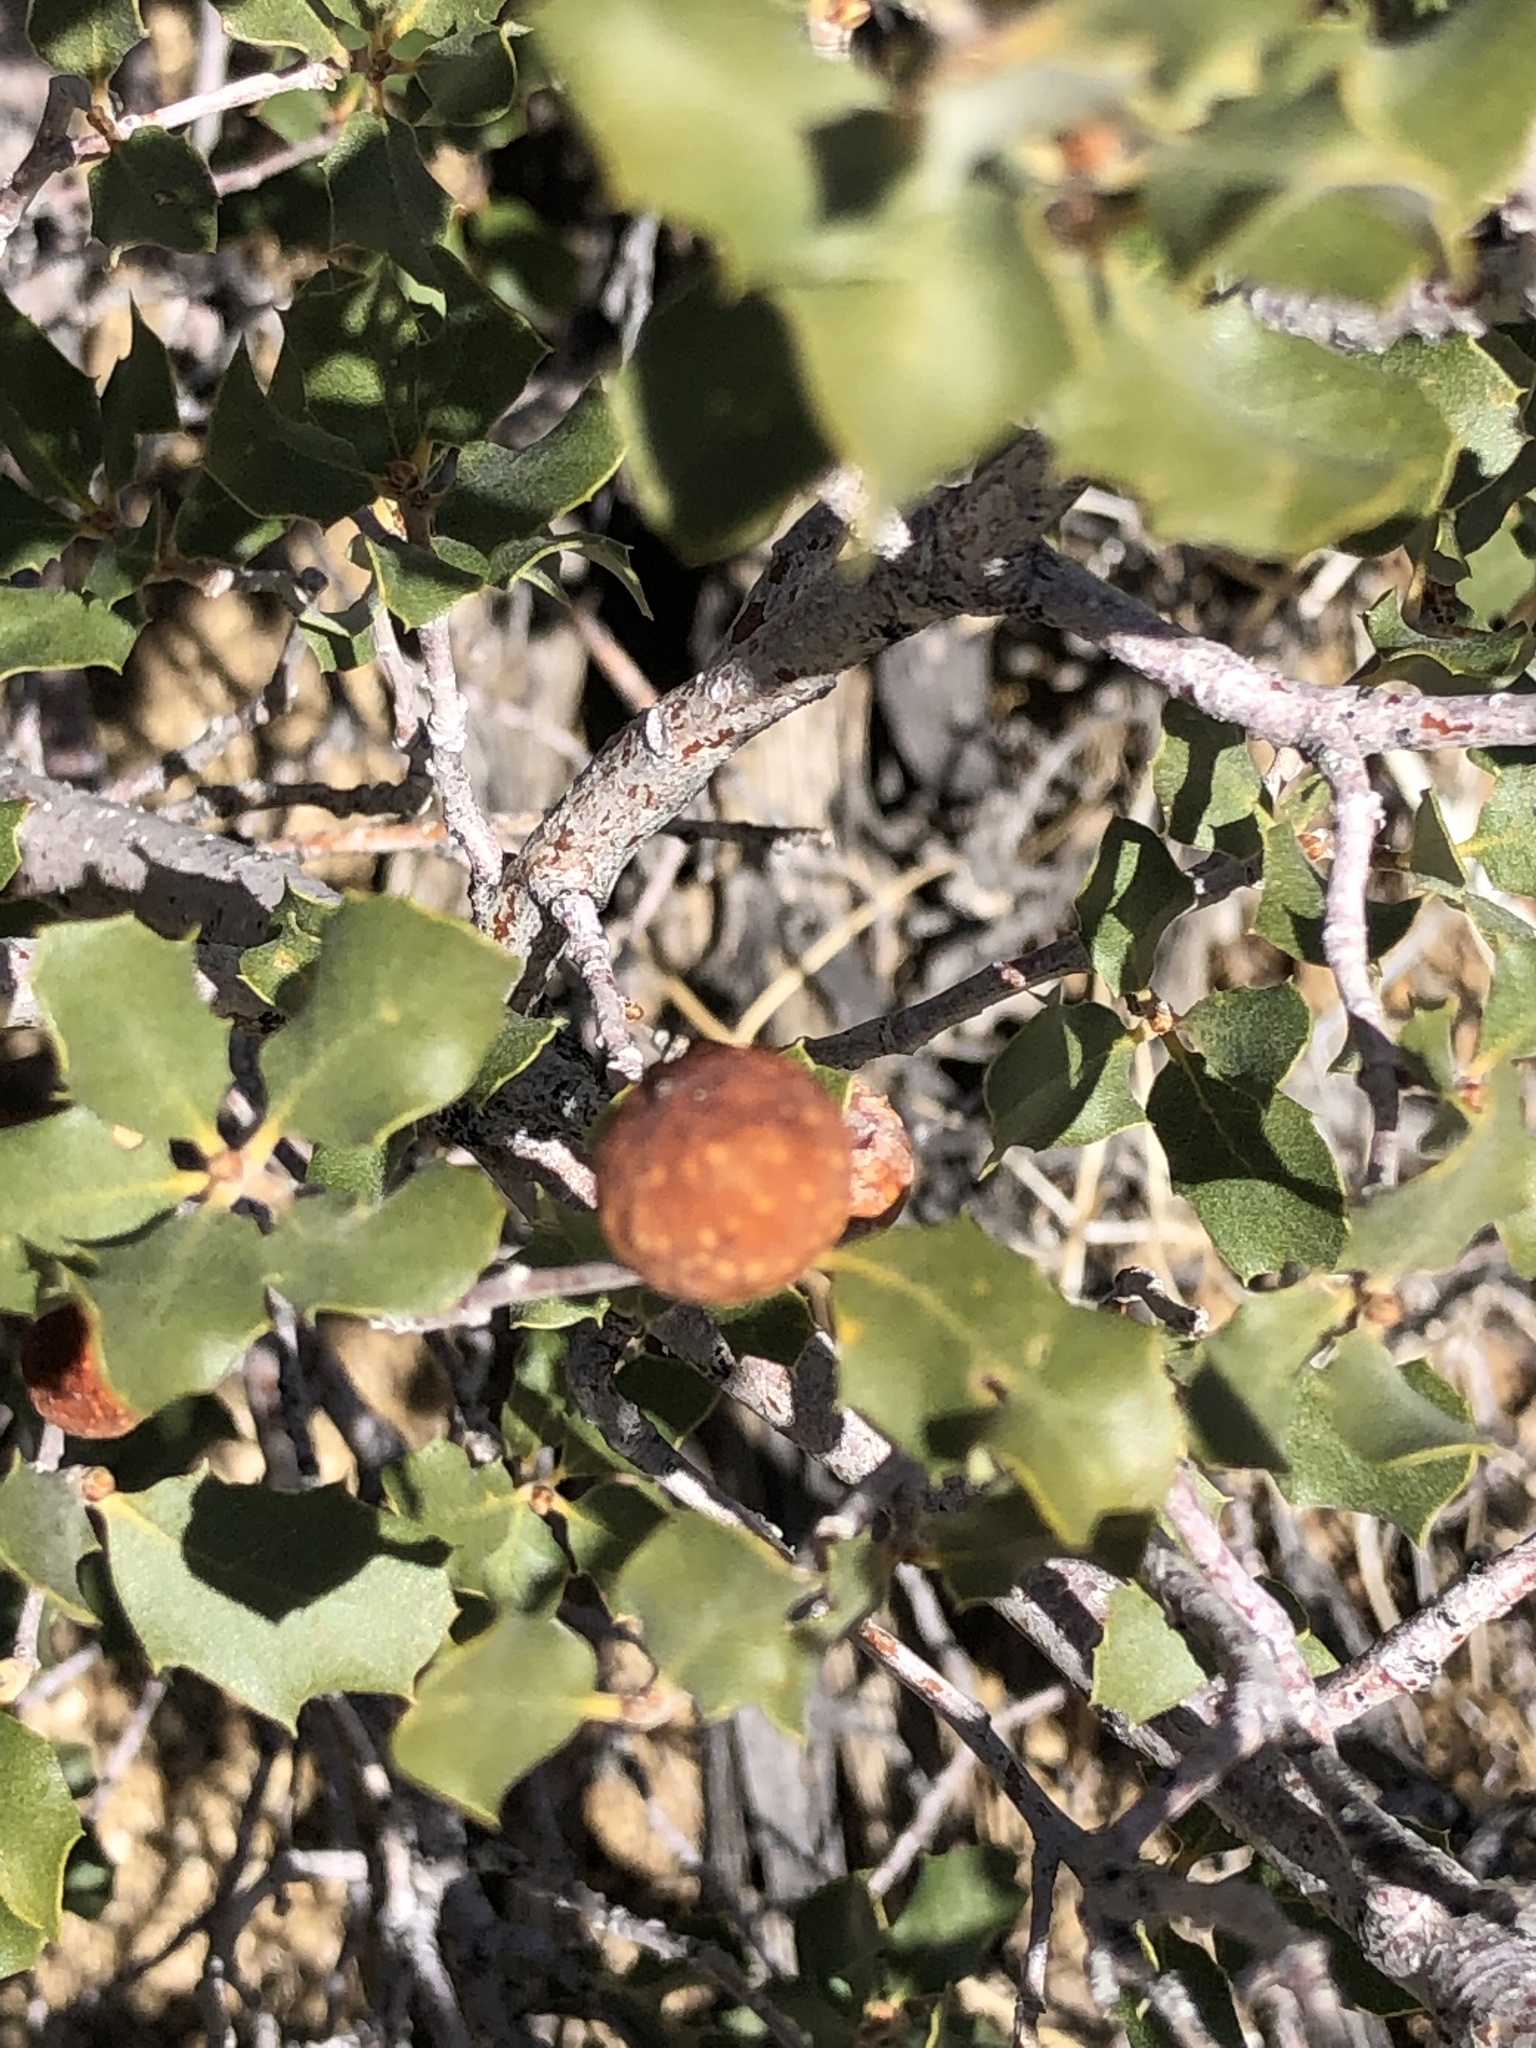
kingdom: Animalia
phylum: Arthropoda
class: Insecta
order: Hymenoptera
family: Cynipidae
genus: Burnettweldia
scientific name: Burnettweldia
